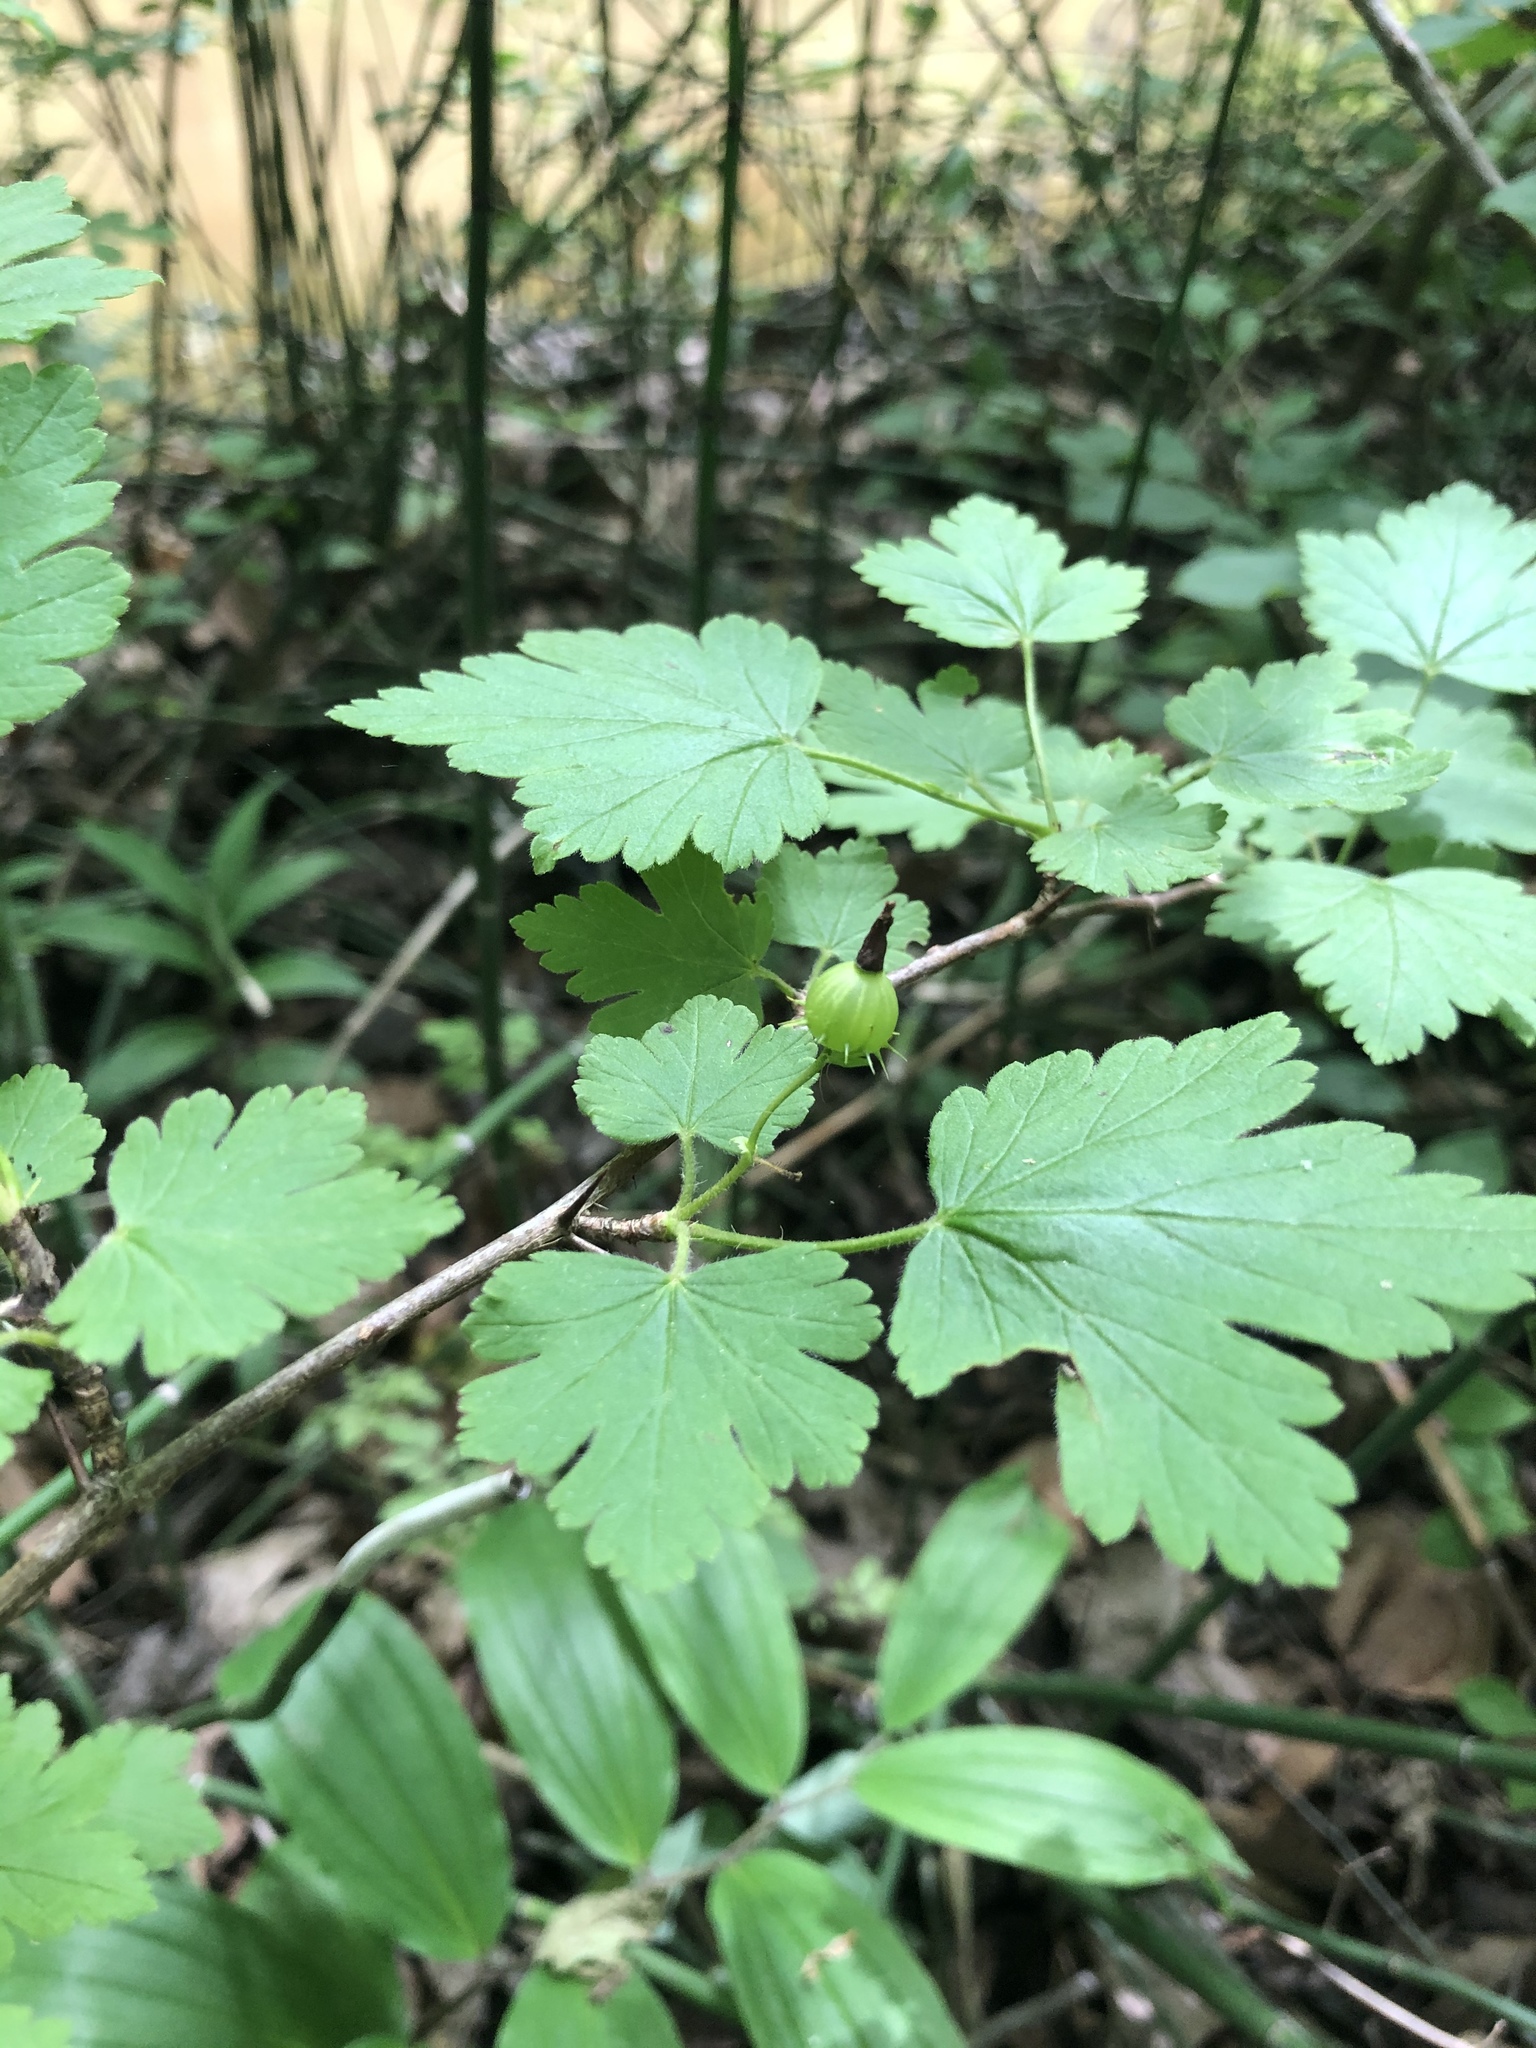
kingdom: Plantae
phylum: Tracheophyta
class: Magnoliopsida
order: Saxifragales
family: Grossulariaceae
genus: Ribes
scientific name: Ribes cynosbati
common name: American gooseberry
